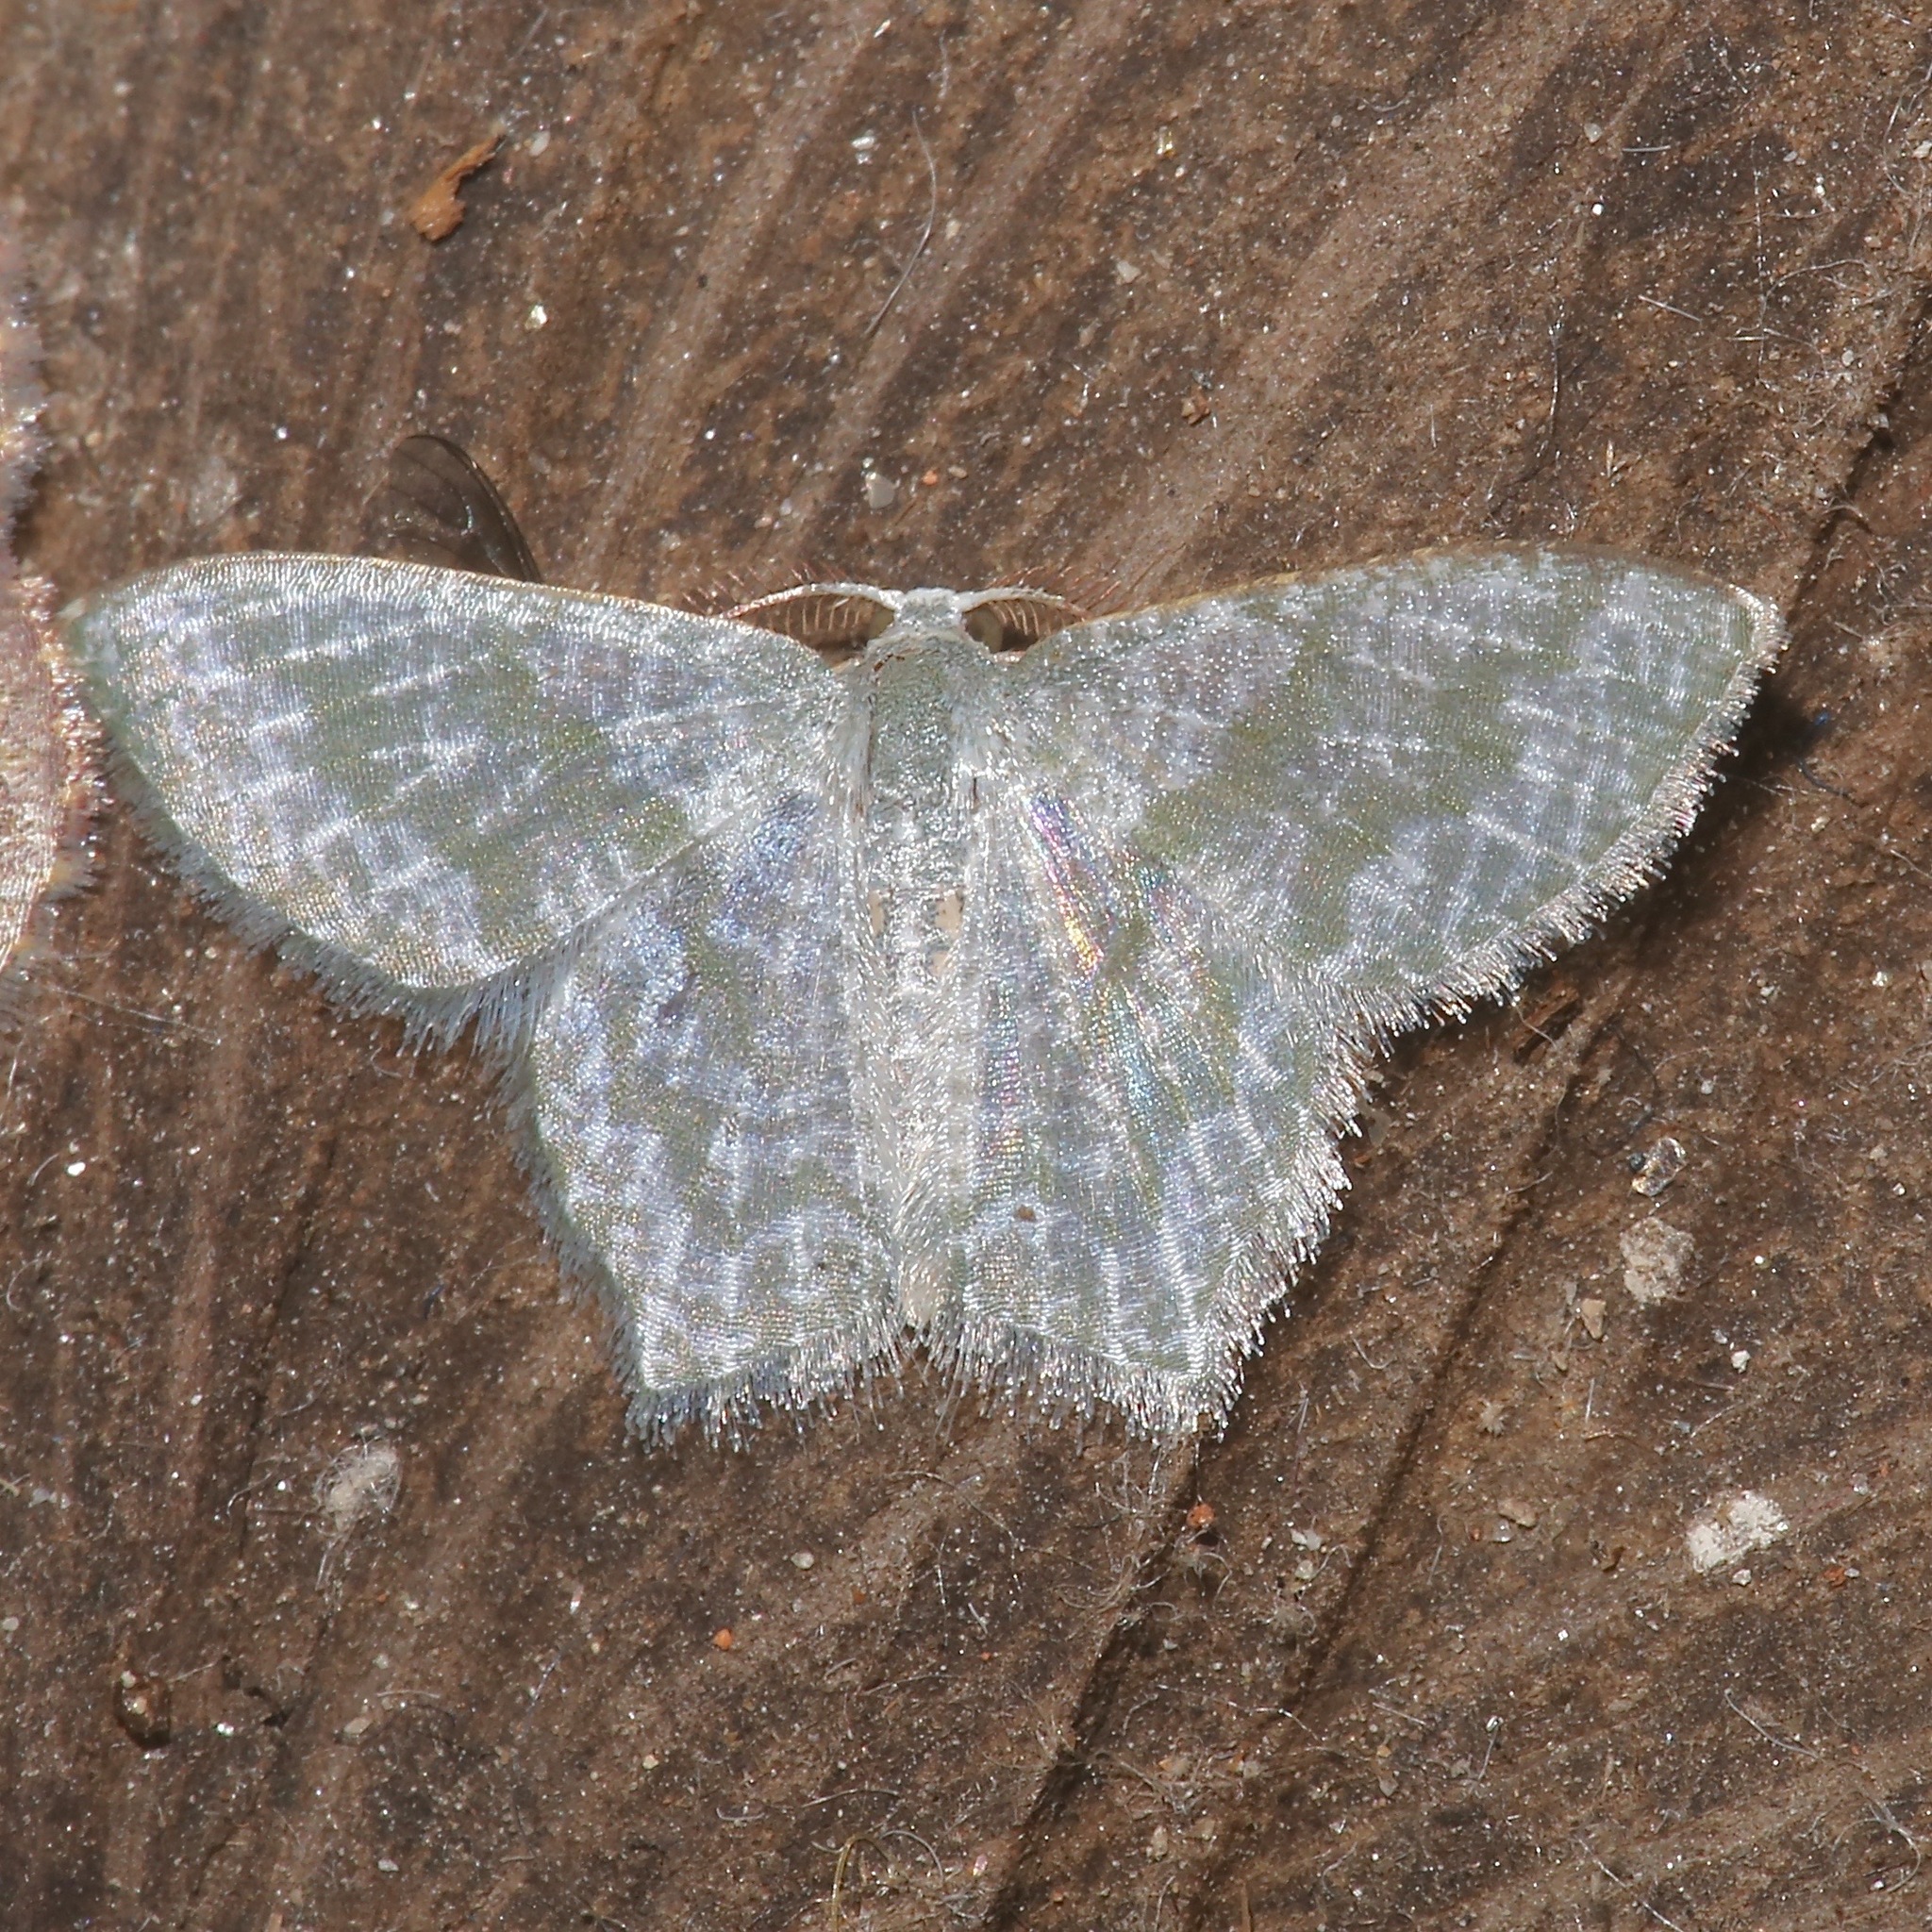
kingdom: Animalia
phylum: Arthropoda
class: Insecta
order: Lepidoptera
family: Geometridae
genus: Chloropteryx
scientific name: Chloropteryx opalaria
